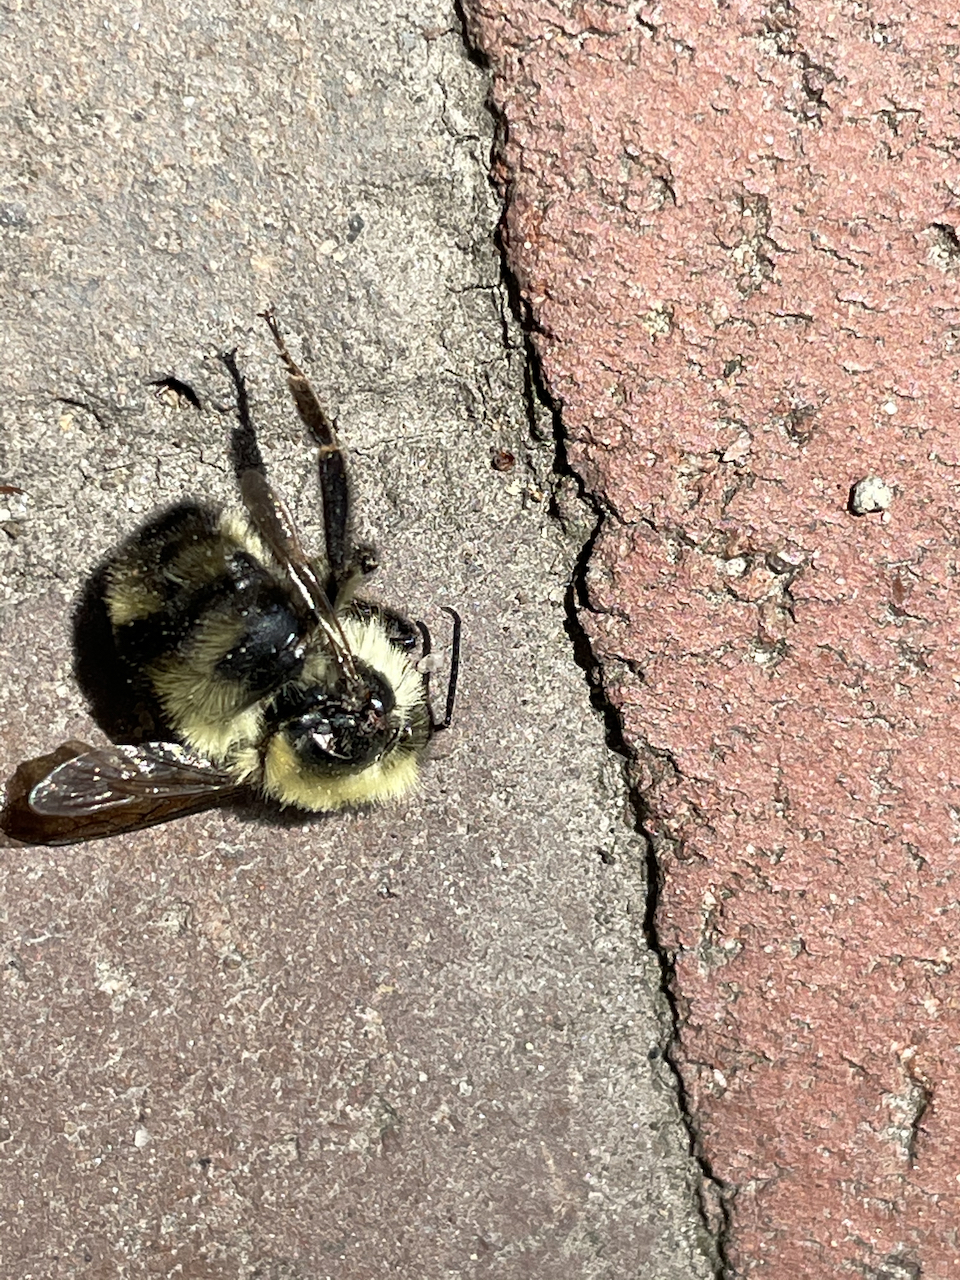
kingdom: Animalia
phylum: Arthropoda
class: Insecta
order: Hymenoptera
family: Apidae
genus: Bombus
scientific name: Bombus bimaculatus
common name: Two-spotted bumble bee
